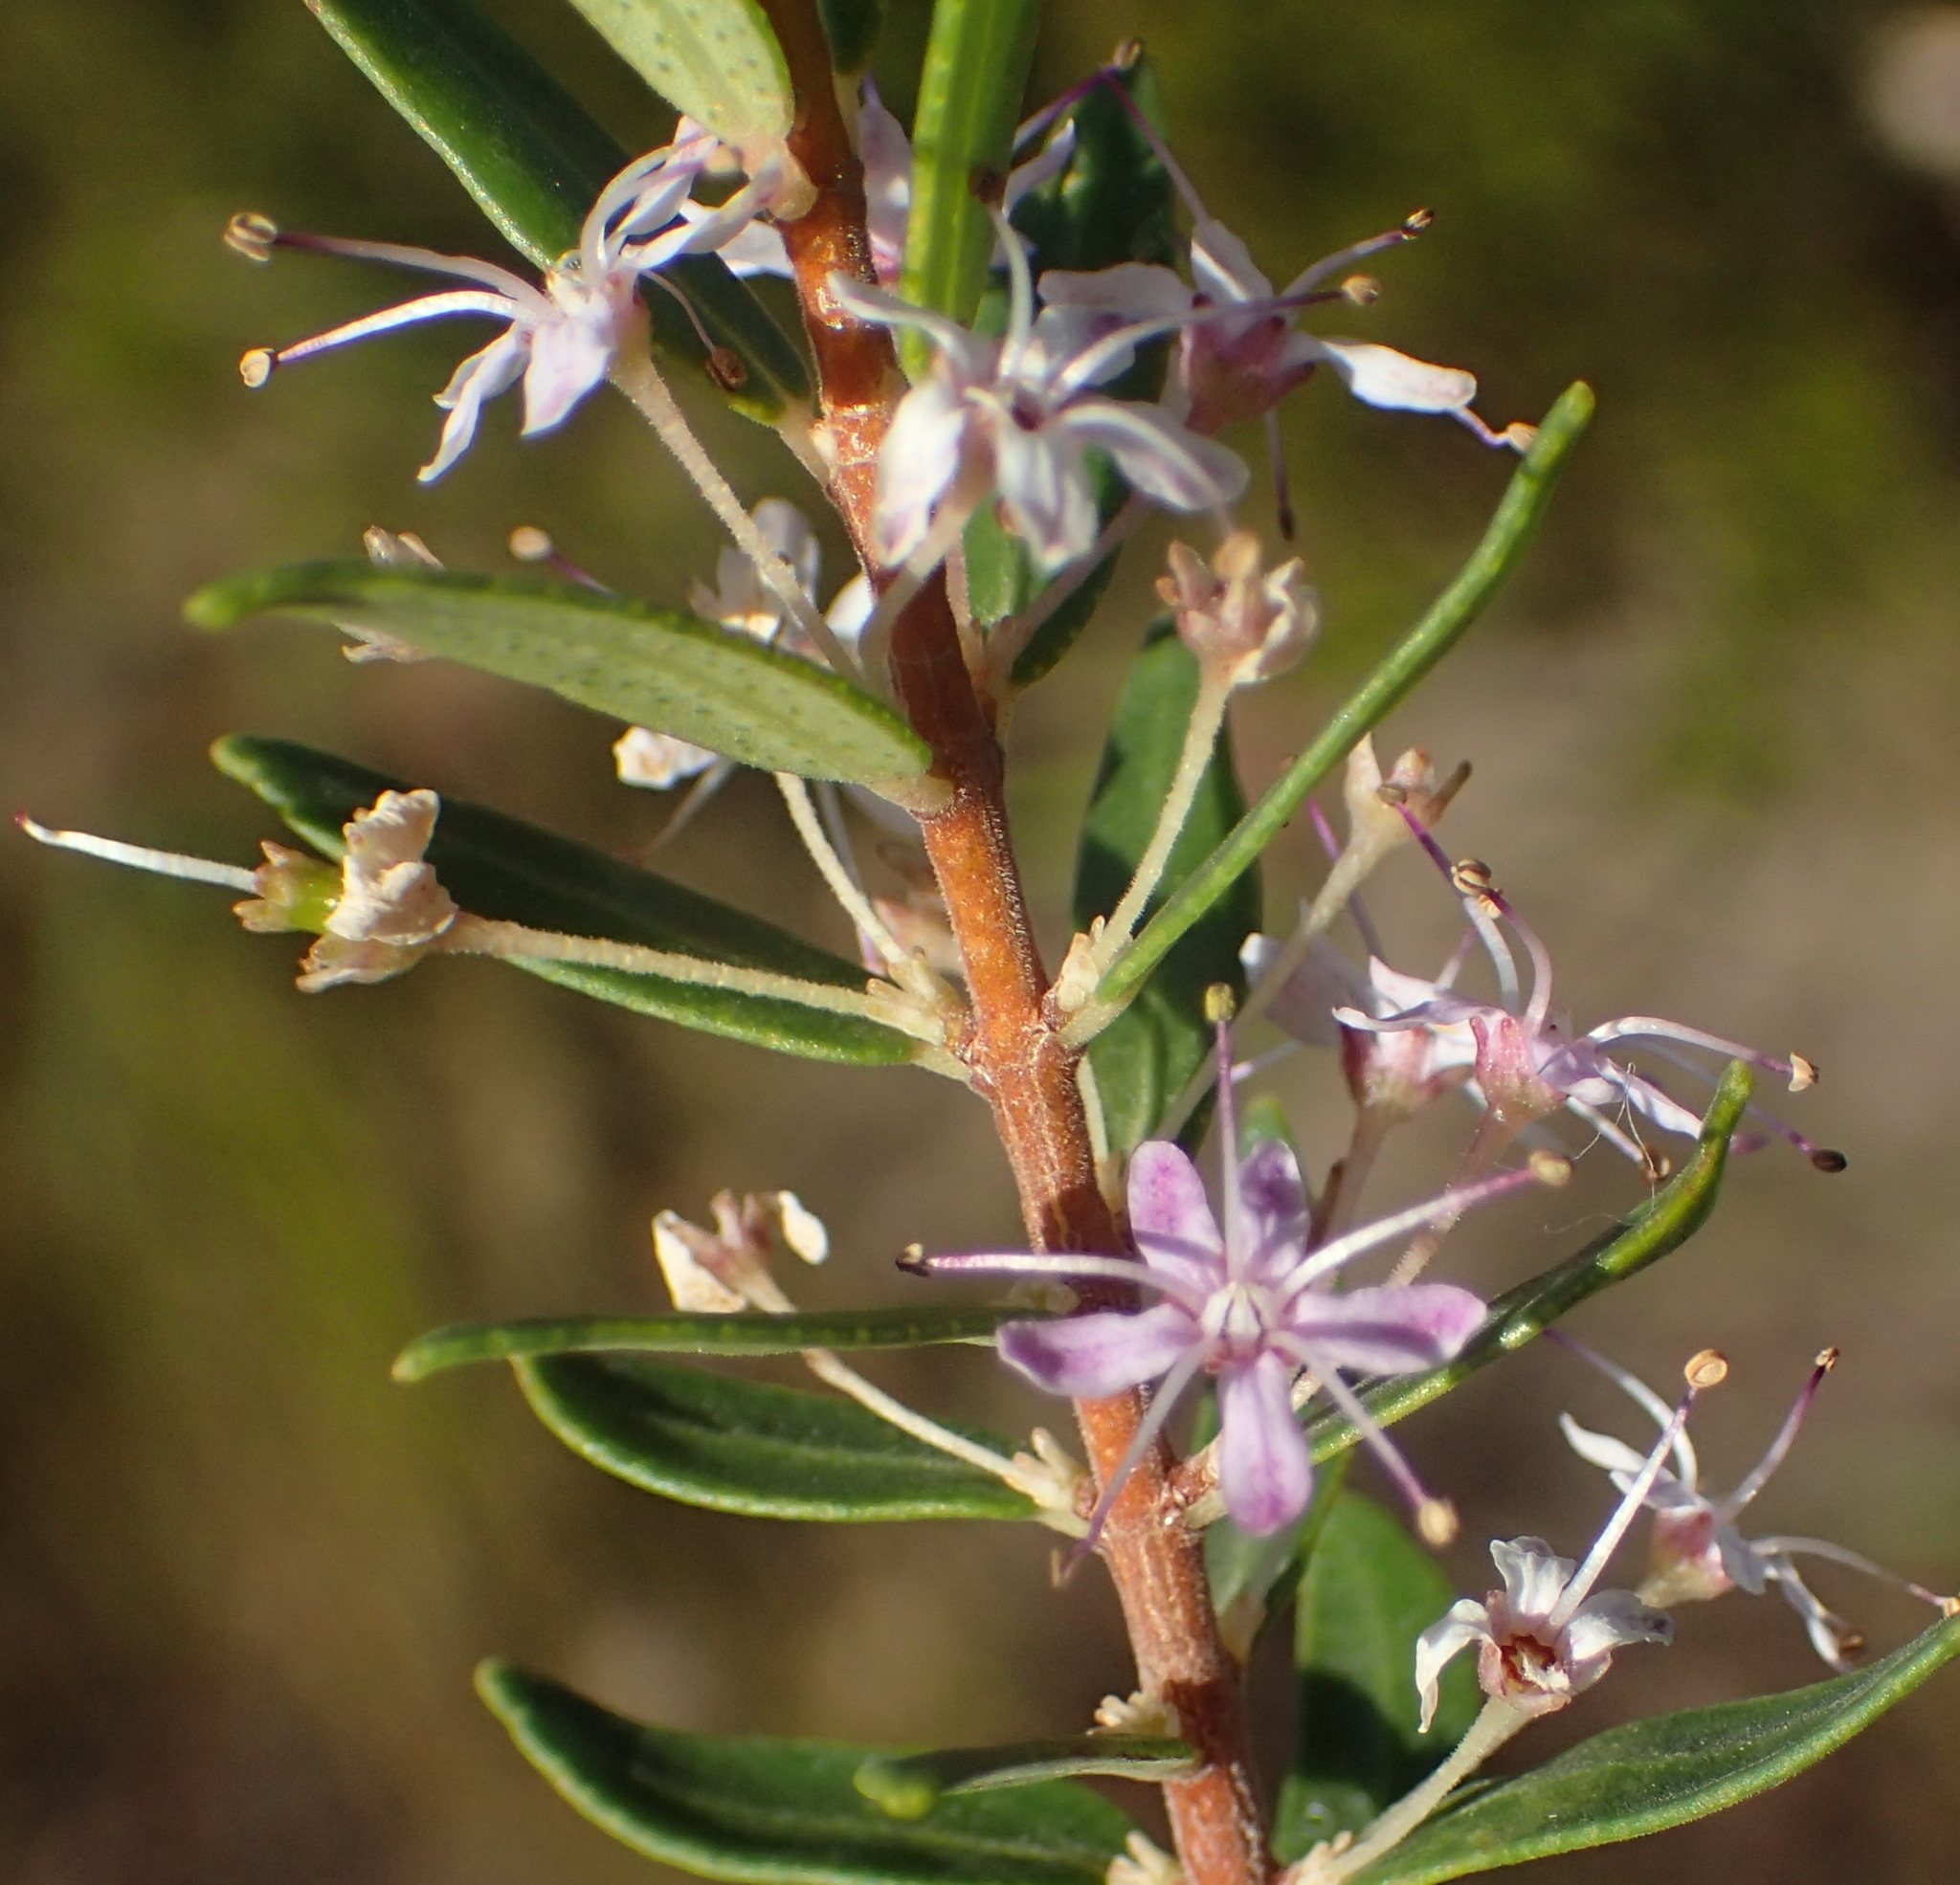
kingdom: Plantae
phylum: Tracheophyta
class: Magnoliopsida
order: Sapindales
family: Rutaceae
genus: Agathosma
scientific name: Agathosma ovata
